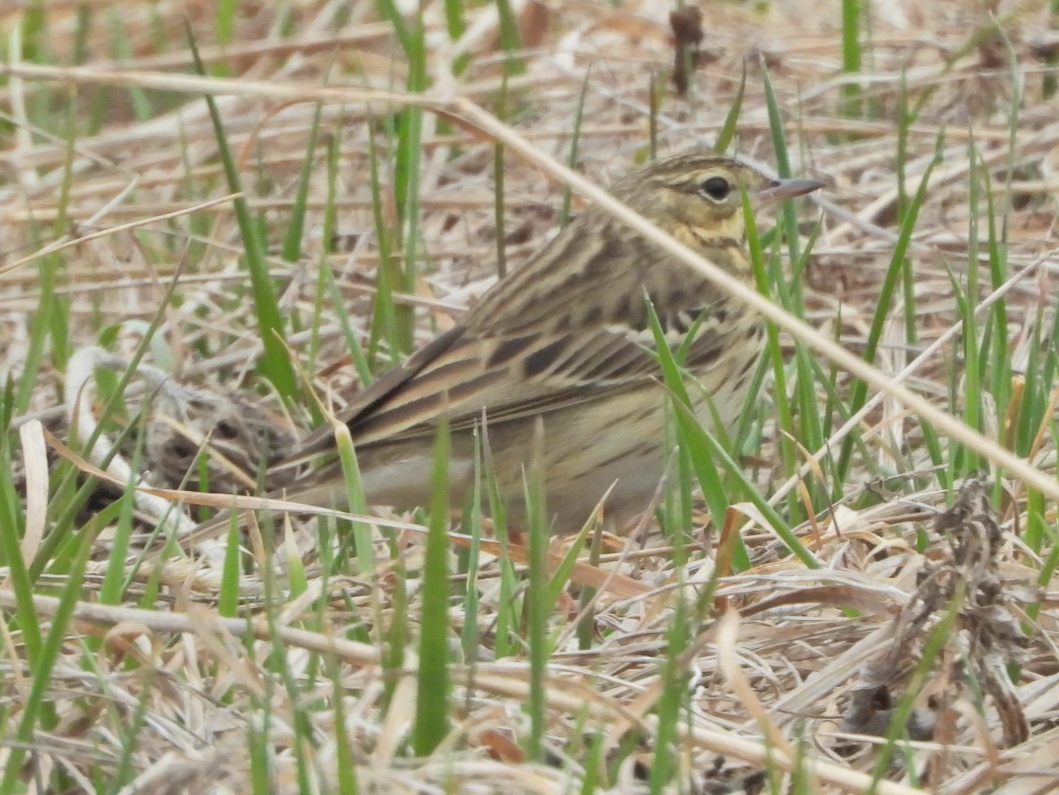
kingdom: Animalia
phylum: Chordata
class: Aves
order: Passeriformes
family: Motacillidae
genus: Anthus
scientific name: Anthus trivialis
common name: Tree pipit
